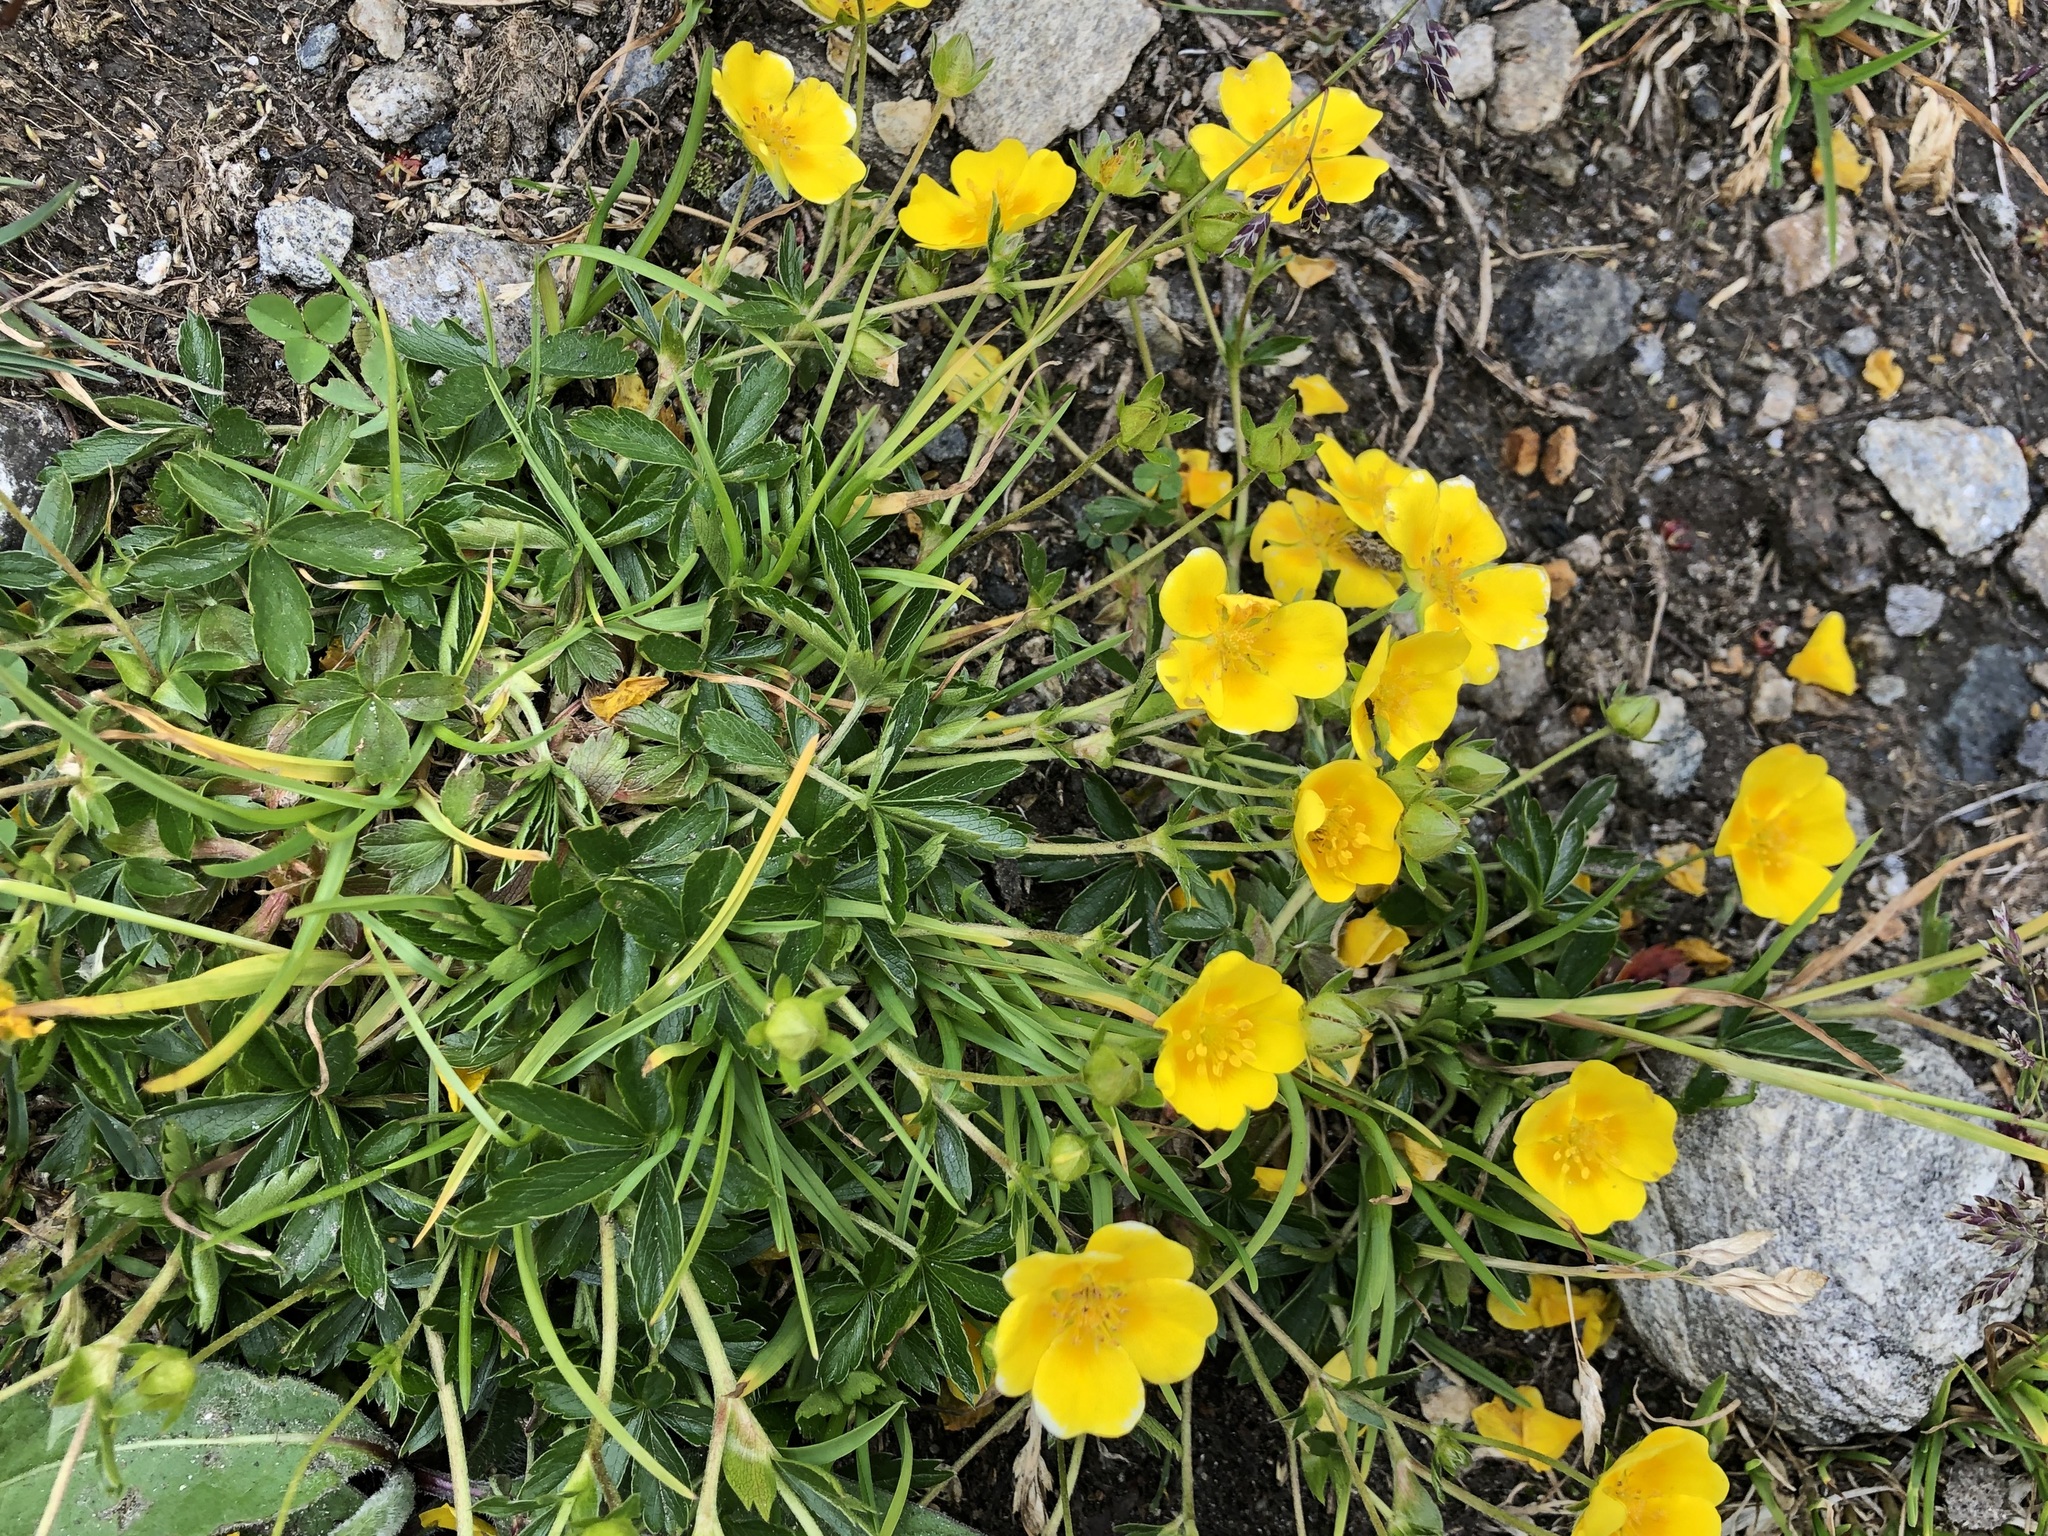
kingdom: Plantae
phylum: Tracheophyta
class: Magnoliopsida
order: Rosales
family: Rosaceae
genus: Potentilla
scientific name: Potentilla aurea
